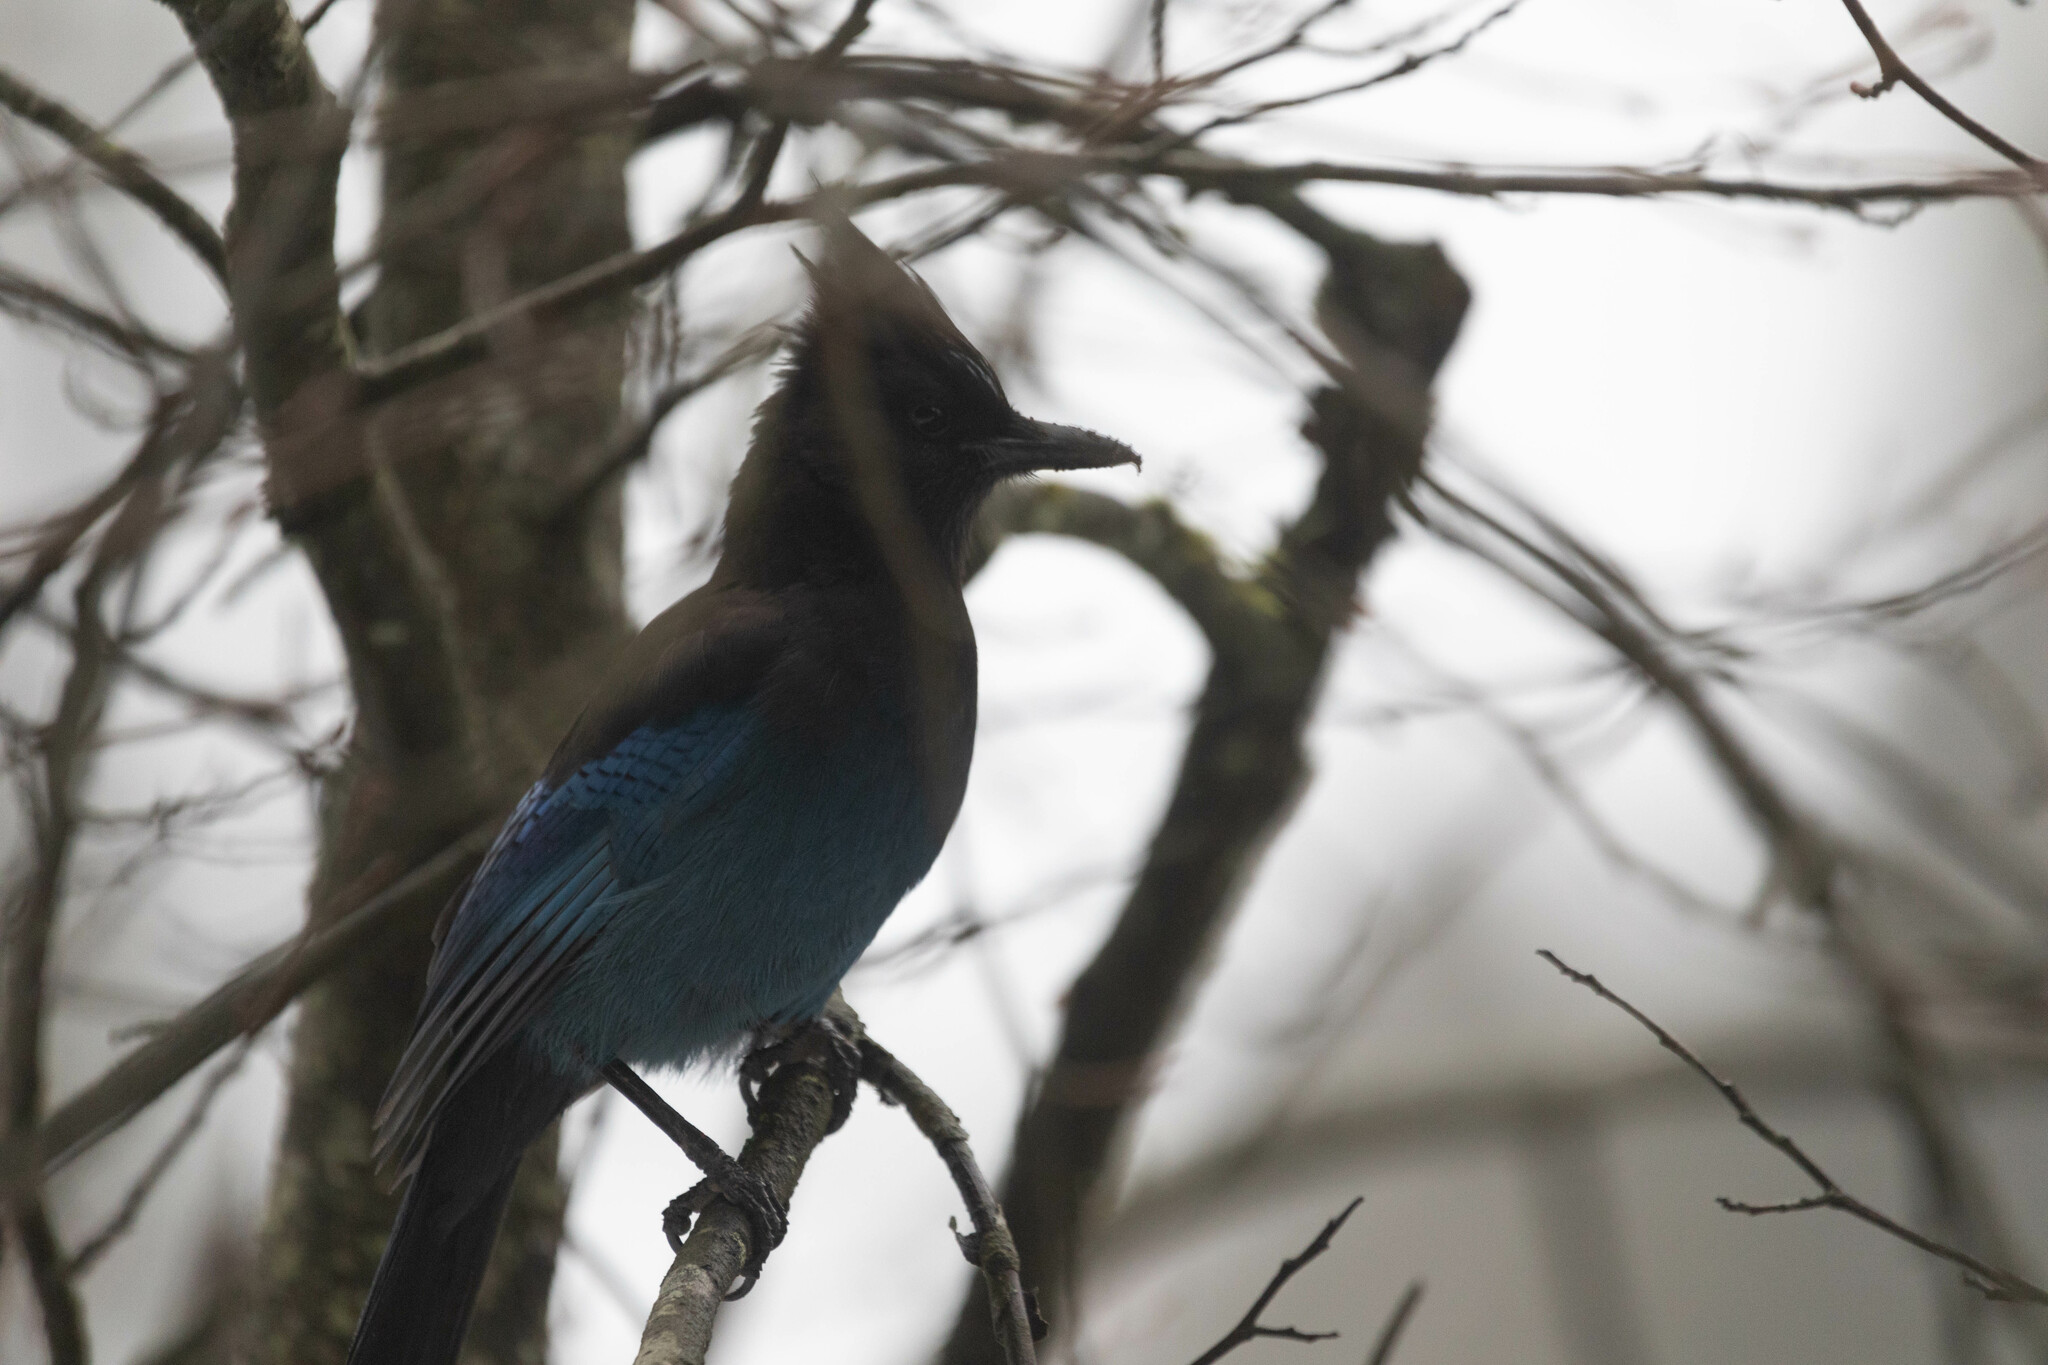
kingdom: Animalia
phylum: Chordata
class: Aves
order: Passeriformes
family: Corvidae
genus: Cyanocitta
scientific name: Cyanocitta stelleri
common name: Steller's jay
